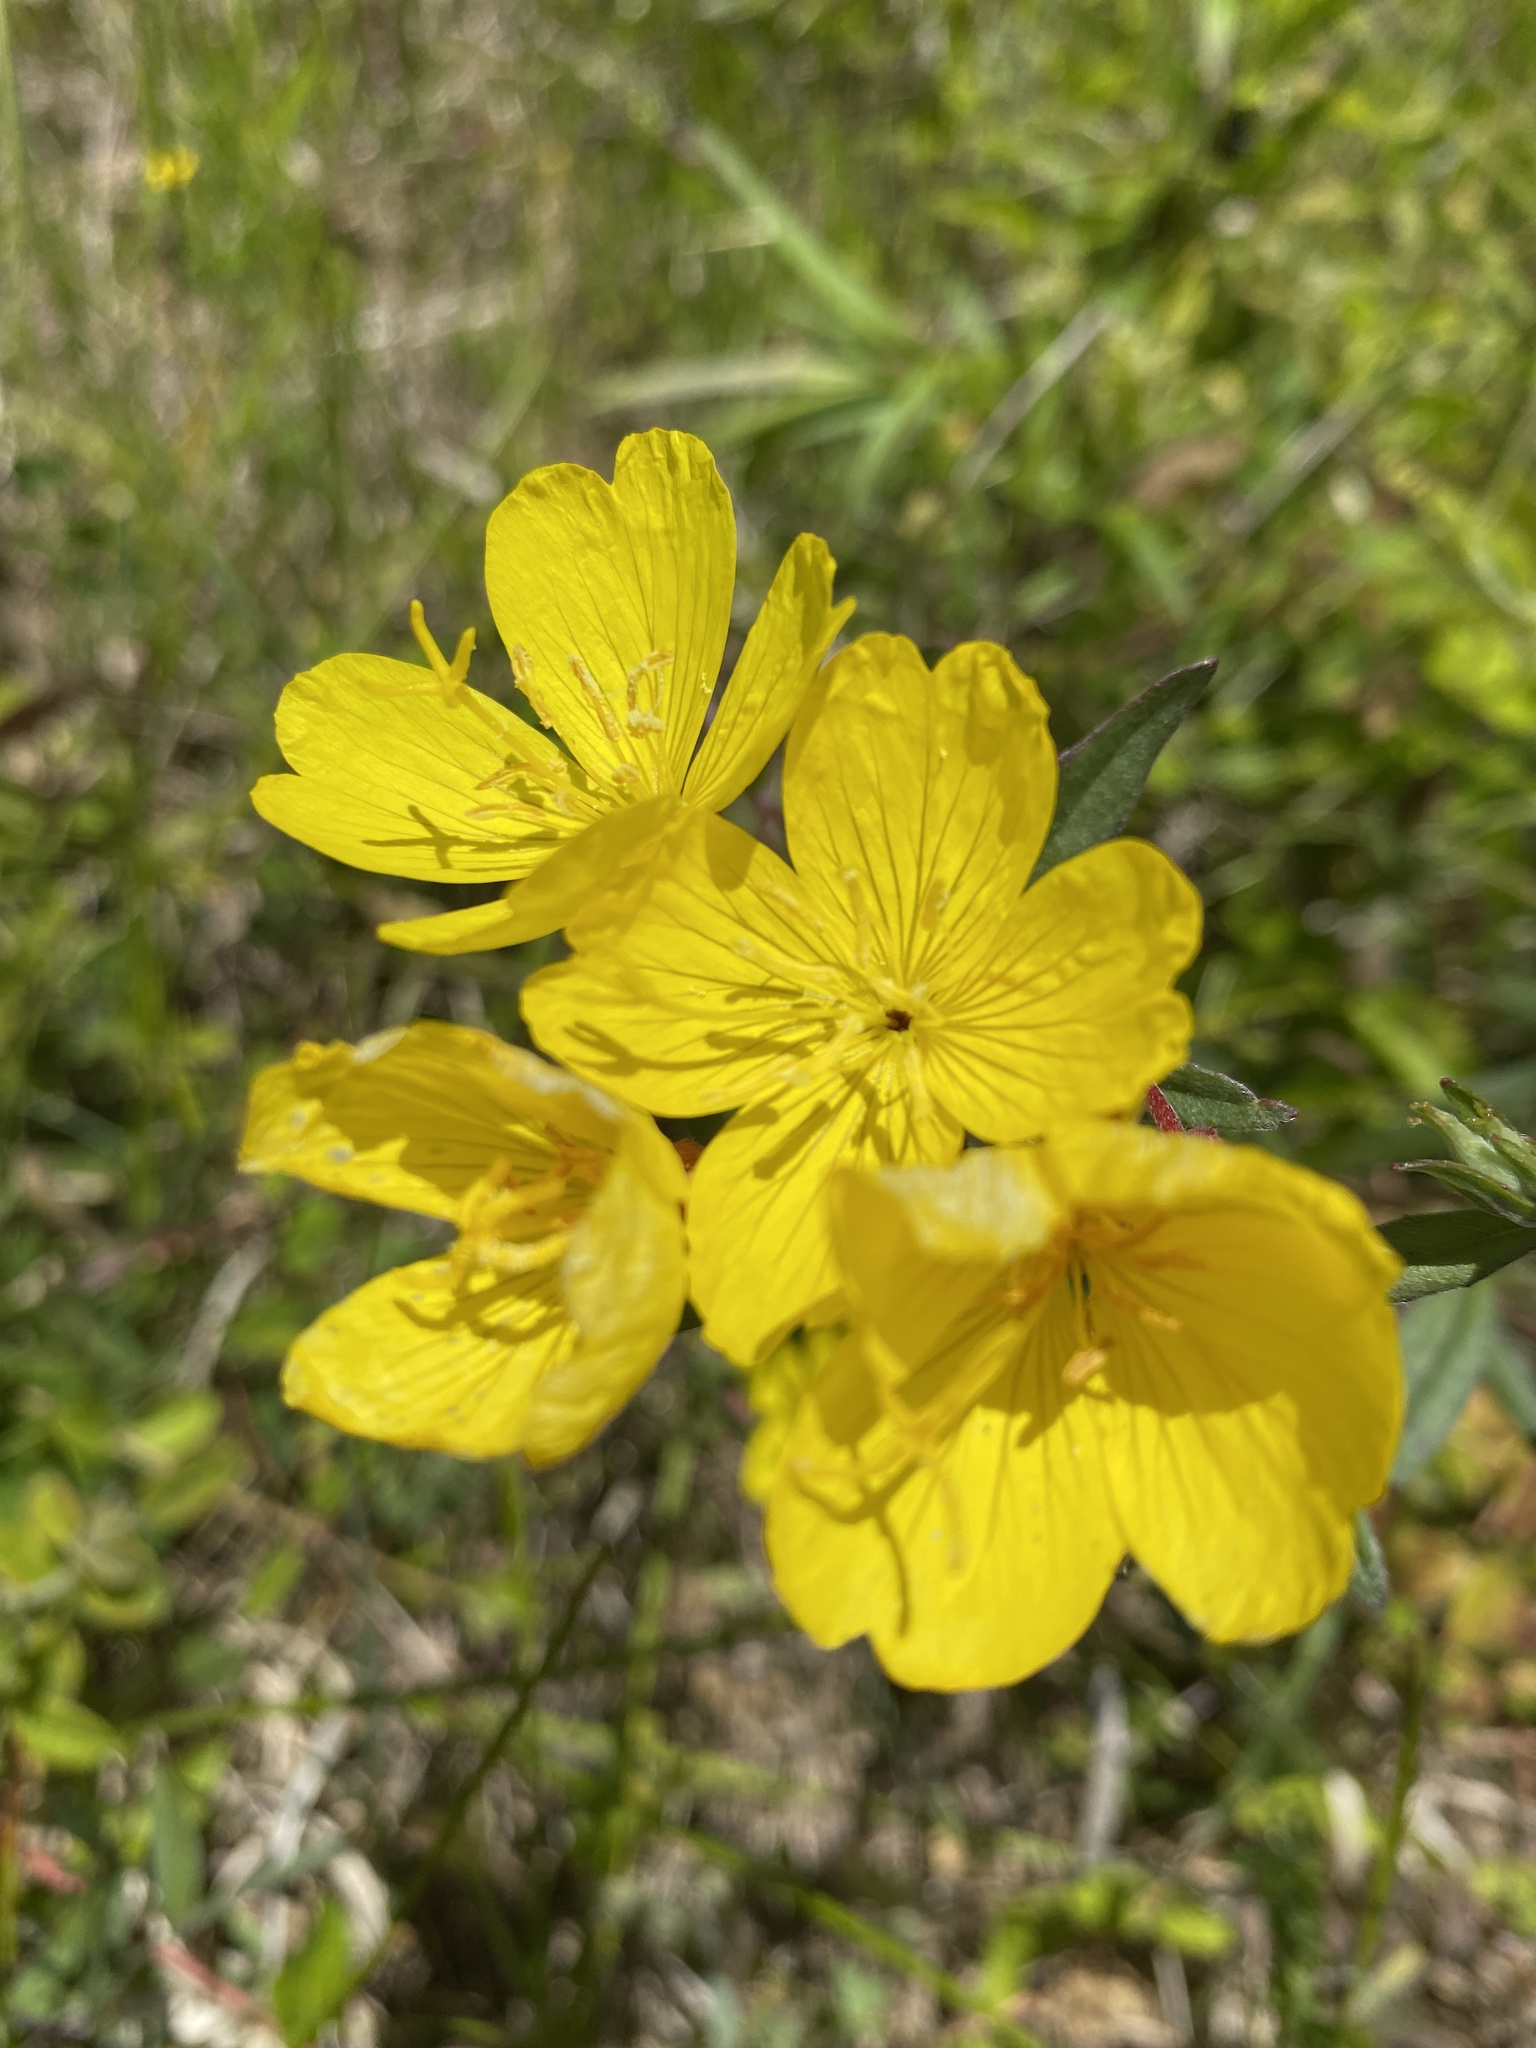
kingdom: Plantae
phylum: Tracheophyta
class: Magnoliopsida
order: Myrtales
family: Onagraceae
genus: Oenothera
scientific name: Oenothera fruticosa
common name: Southern sundrops
